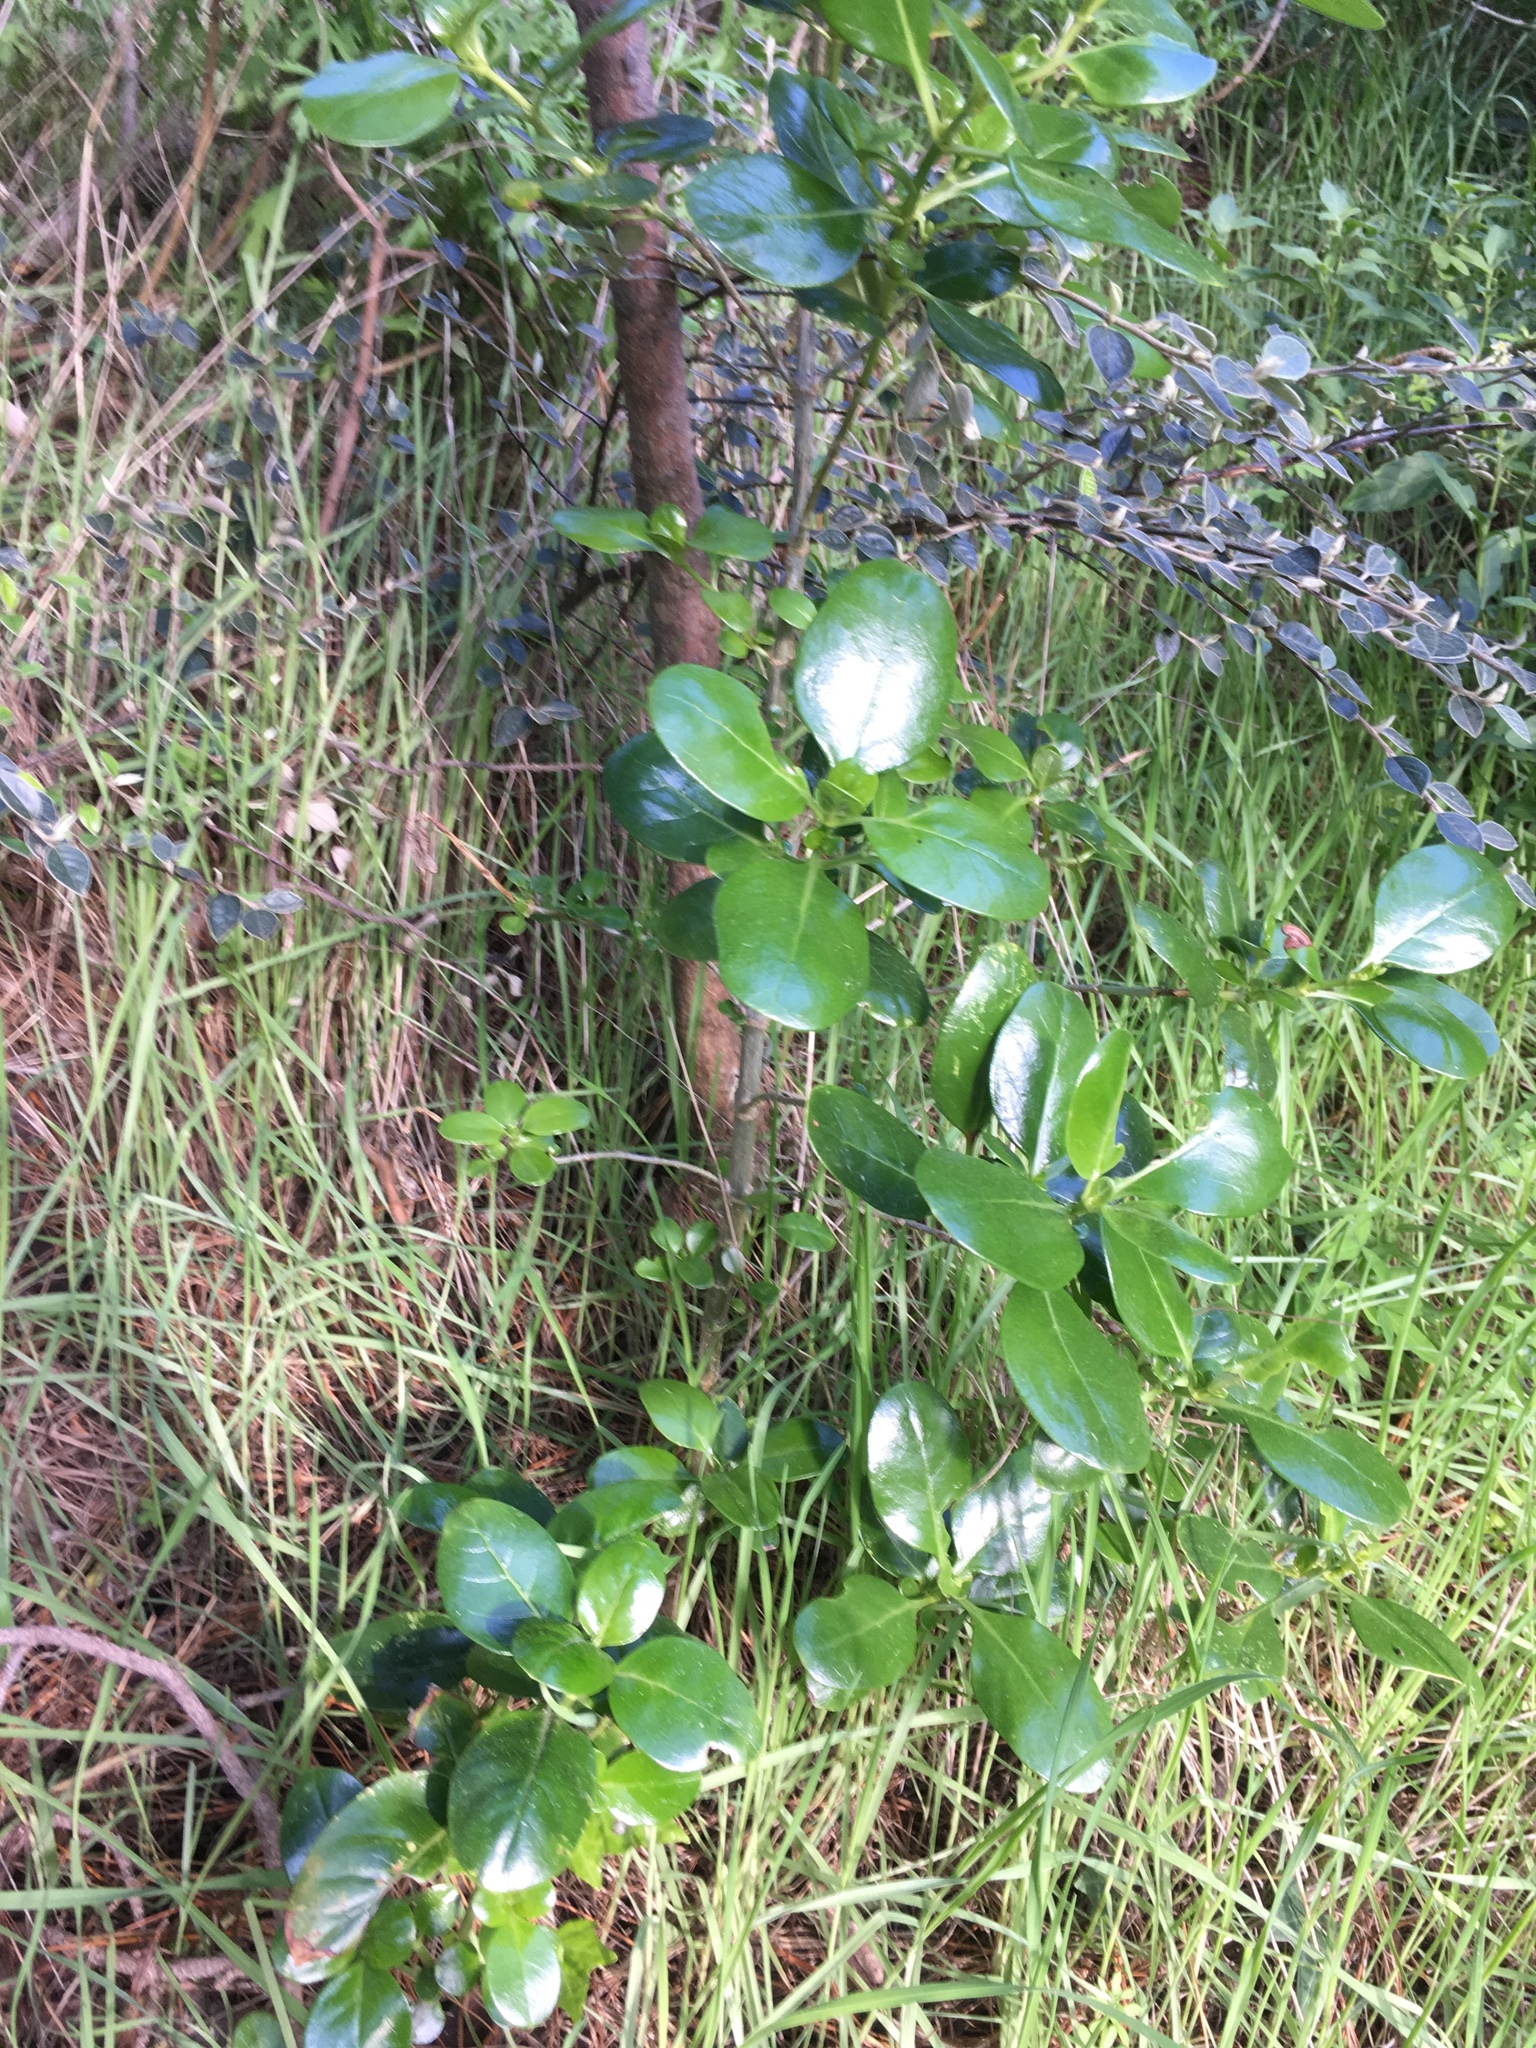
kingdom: Plantae
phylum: Tracheophyta
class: Magnoliopsida
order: Gentianales
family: Rubiaceae
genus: Coprosma
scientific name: Coprosma repens
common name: Tree bedstraw
